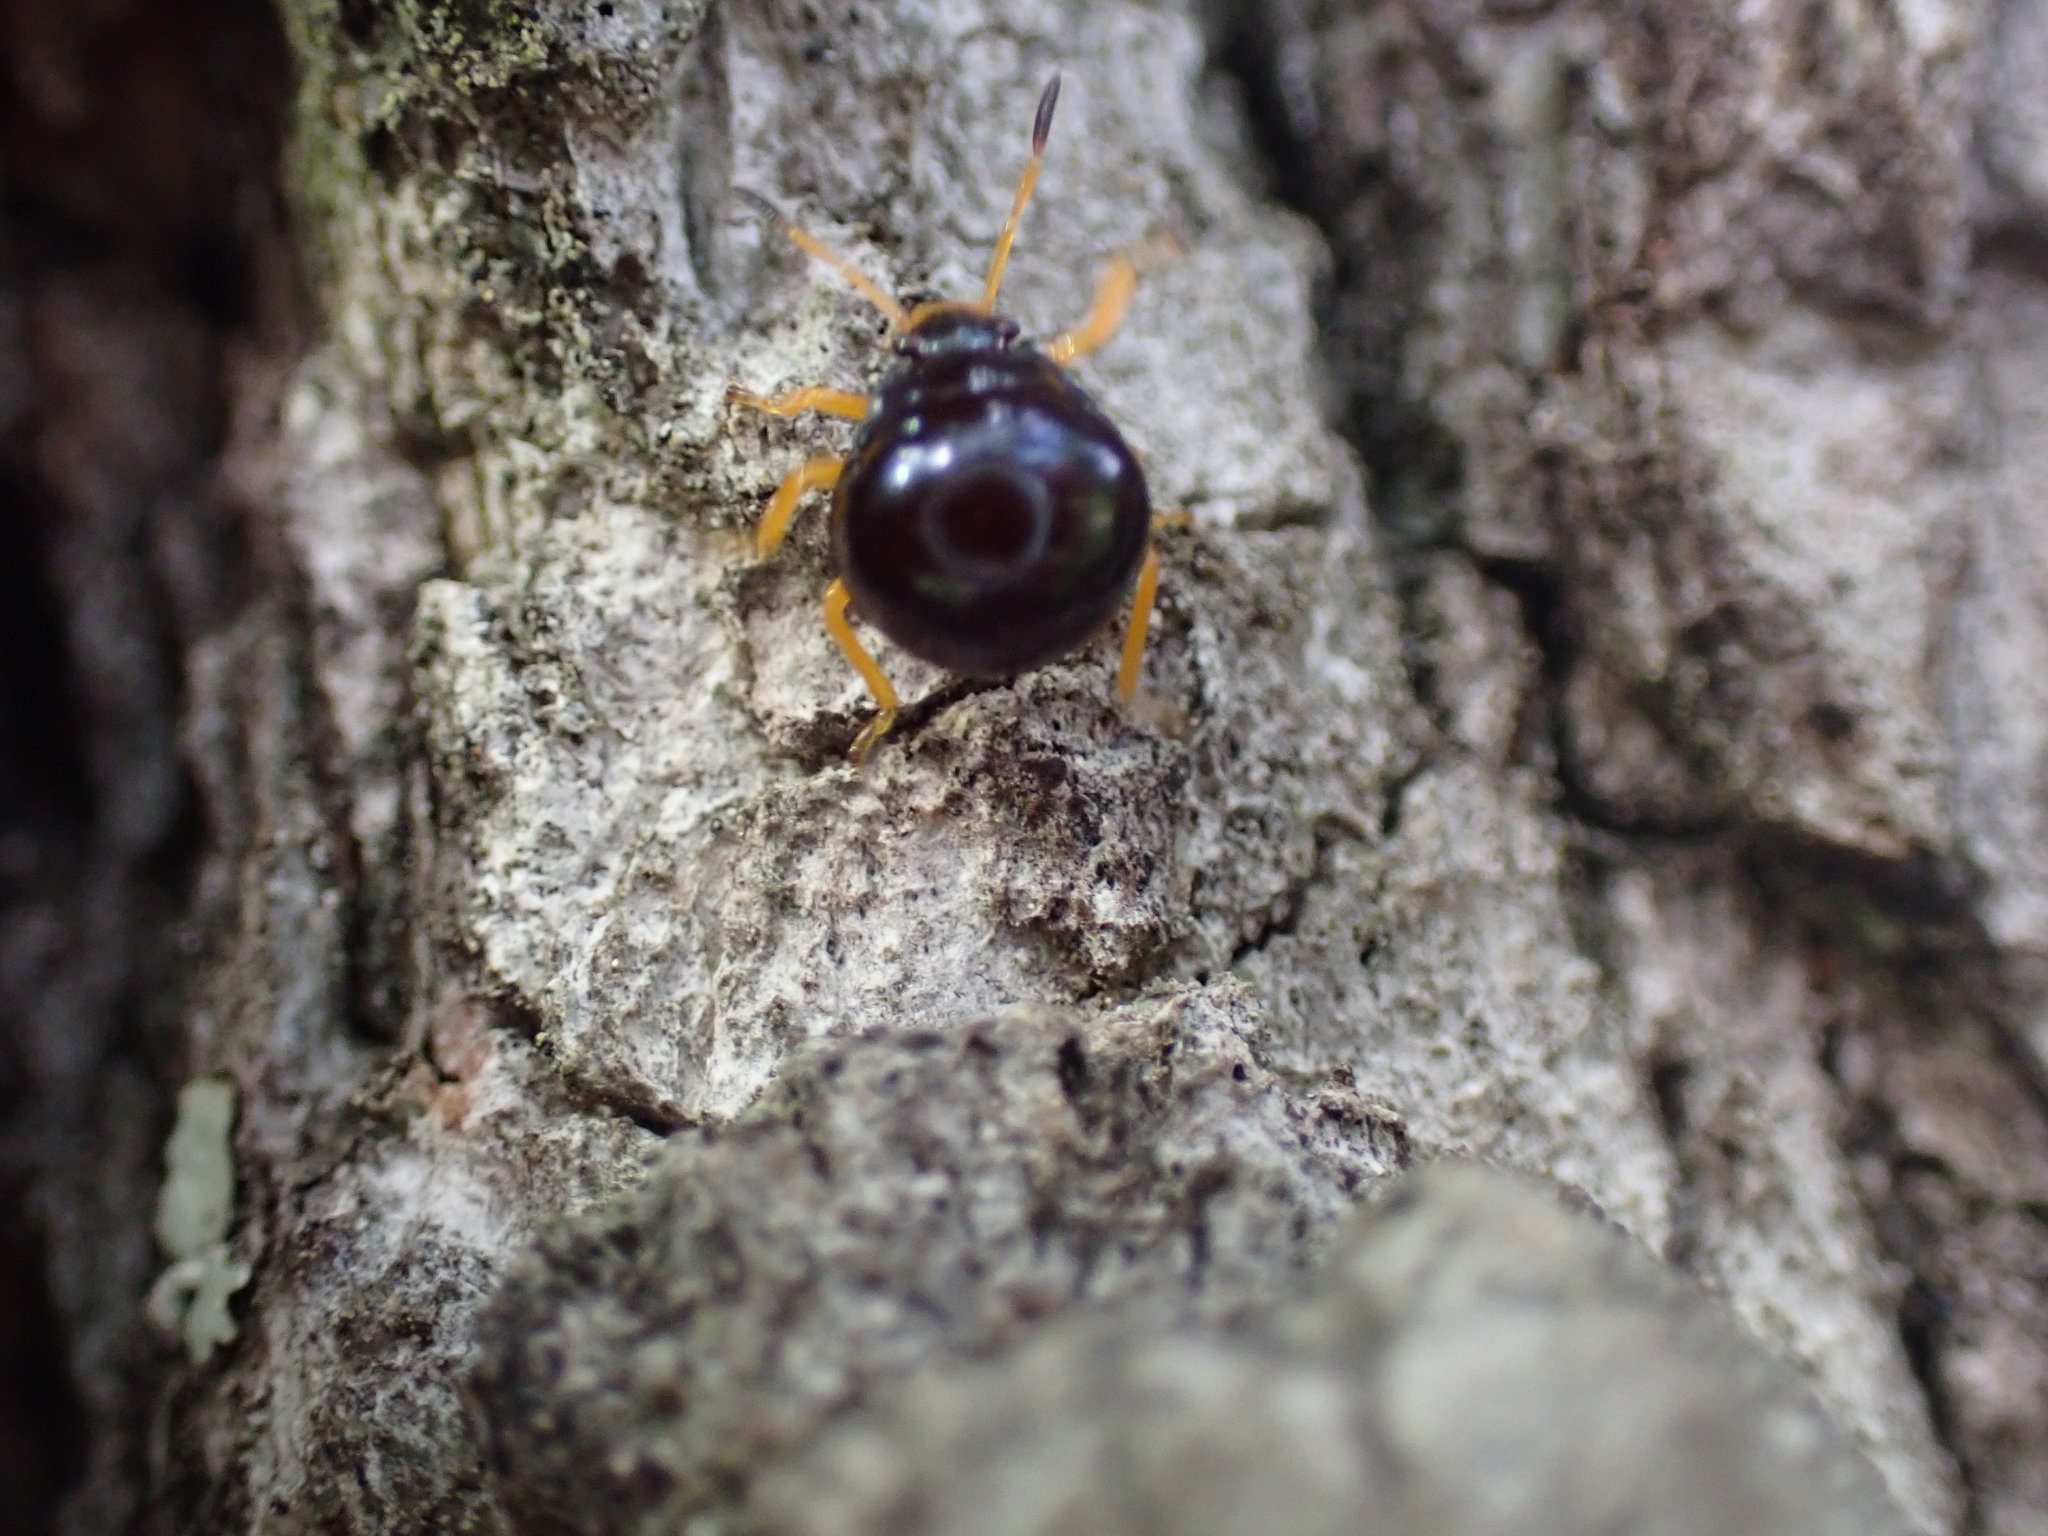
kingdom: Animalia
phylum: Arthropoda
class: Insecta
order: Hemiptera
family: Pentatomidae
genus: Stiretrus
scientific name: Stiretrus anchorago
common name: Anchor stink bug
